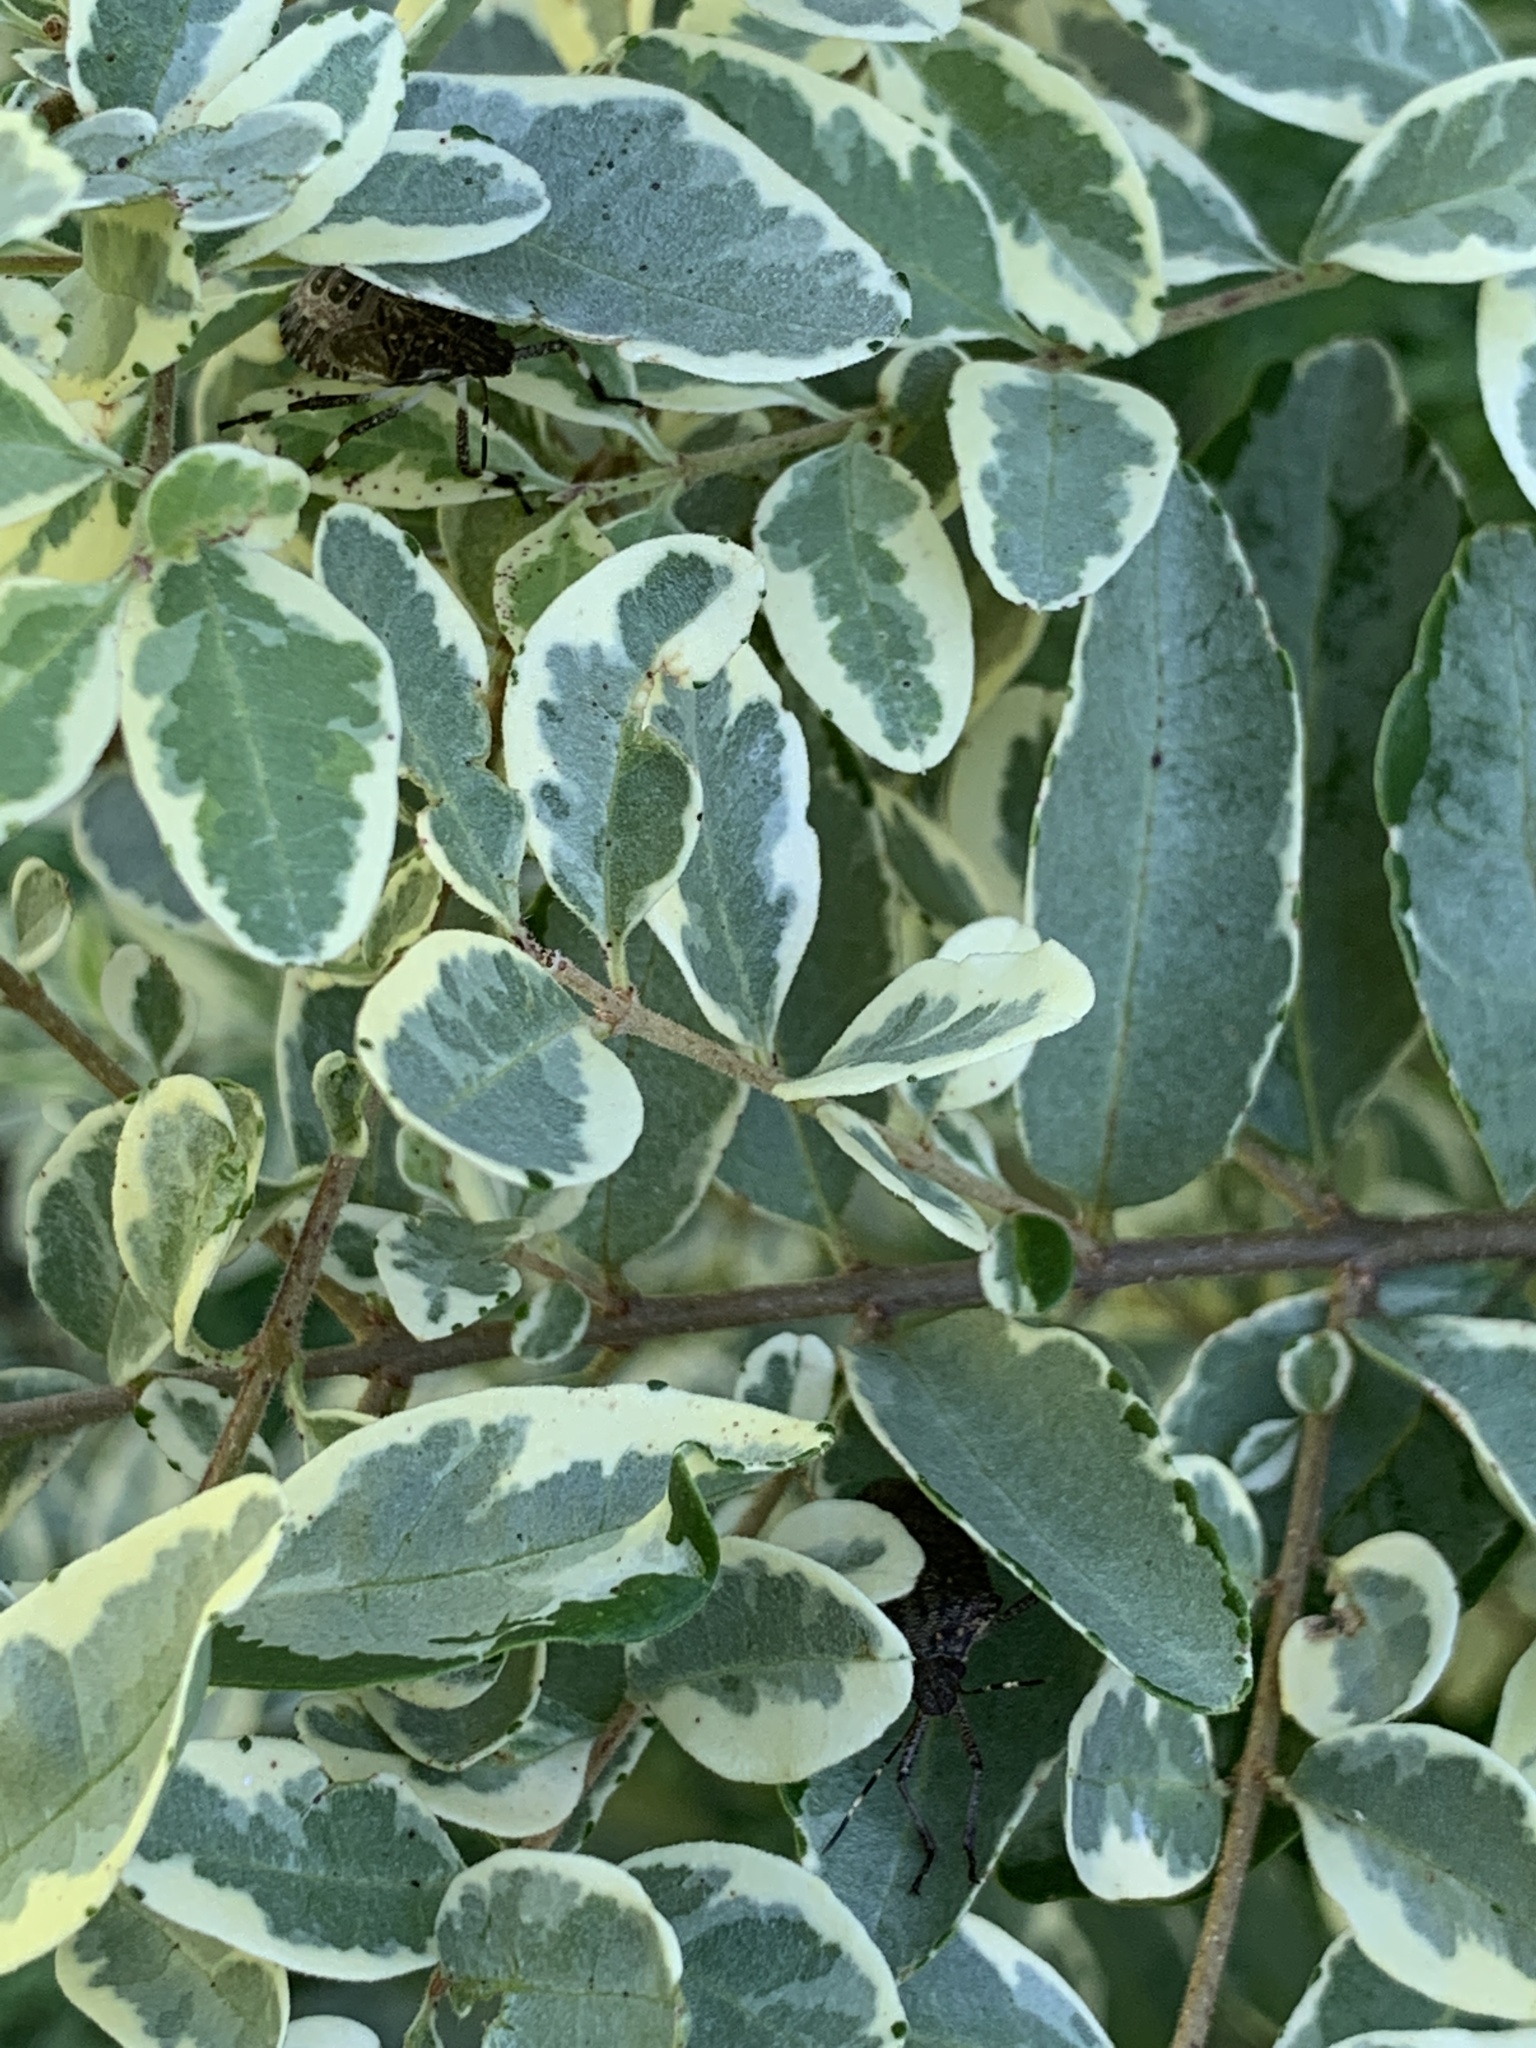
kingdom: Animalia
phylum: Arthropoda
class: Insecta
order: Hemiptera
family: Pentatomidae
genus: Halyomorpha
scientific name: Halyomorpha halys
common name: Brown marmorated stink bug
